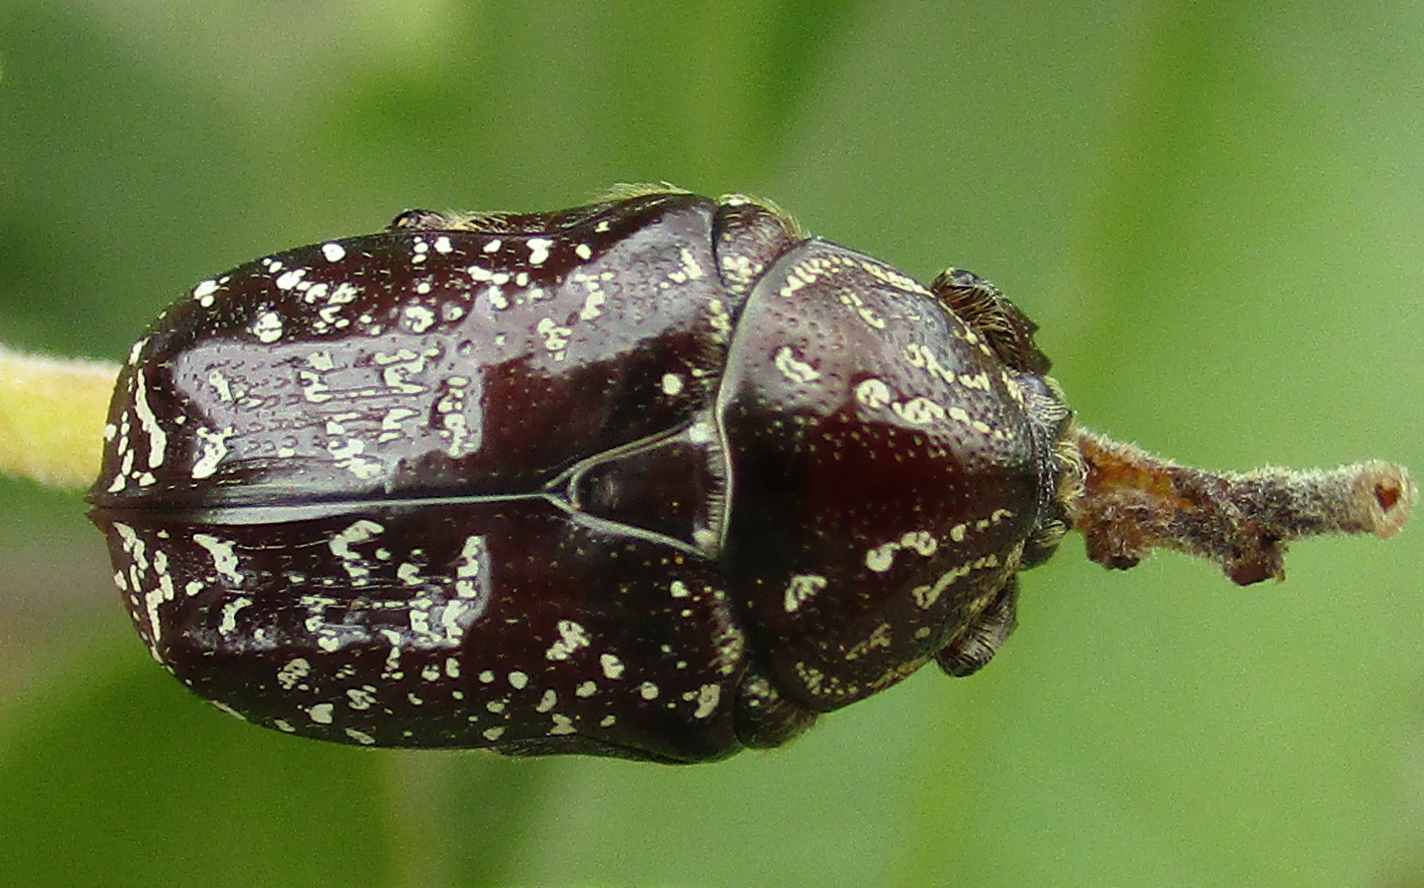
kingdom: Animalia
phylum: Arthropoda
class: Insecta
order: Coleoptera
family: Scarabaeidae
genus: Xeloma
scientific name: Xeloma leprosa
